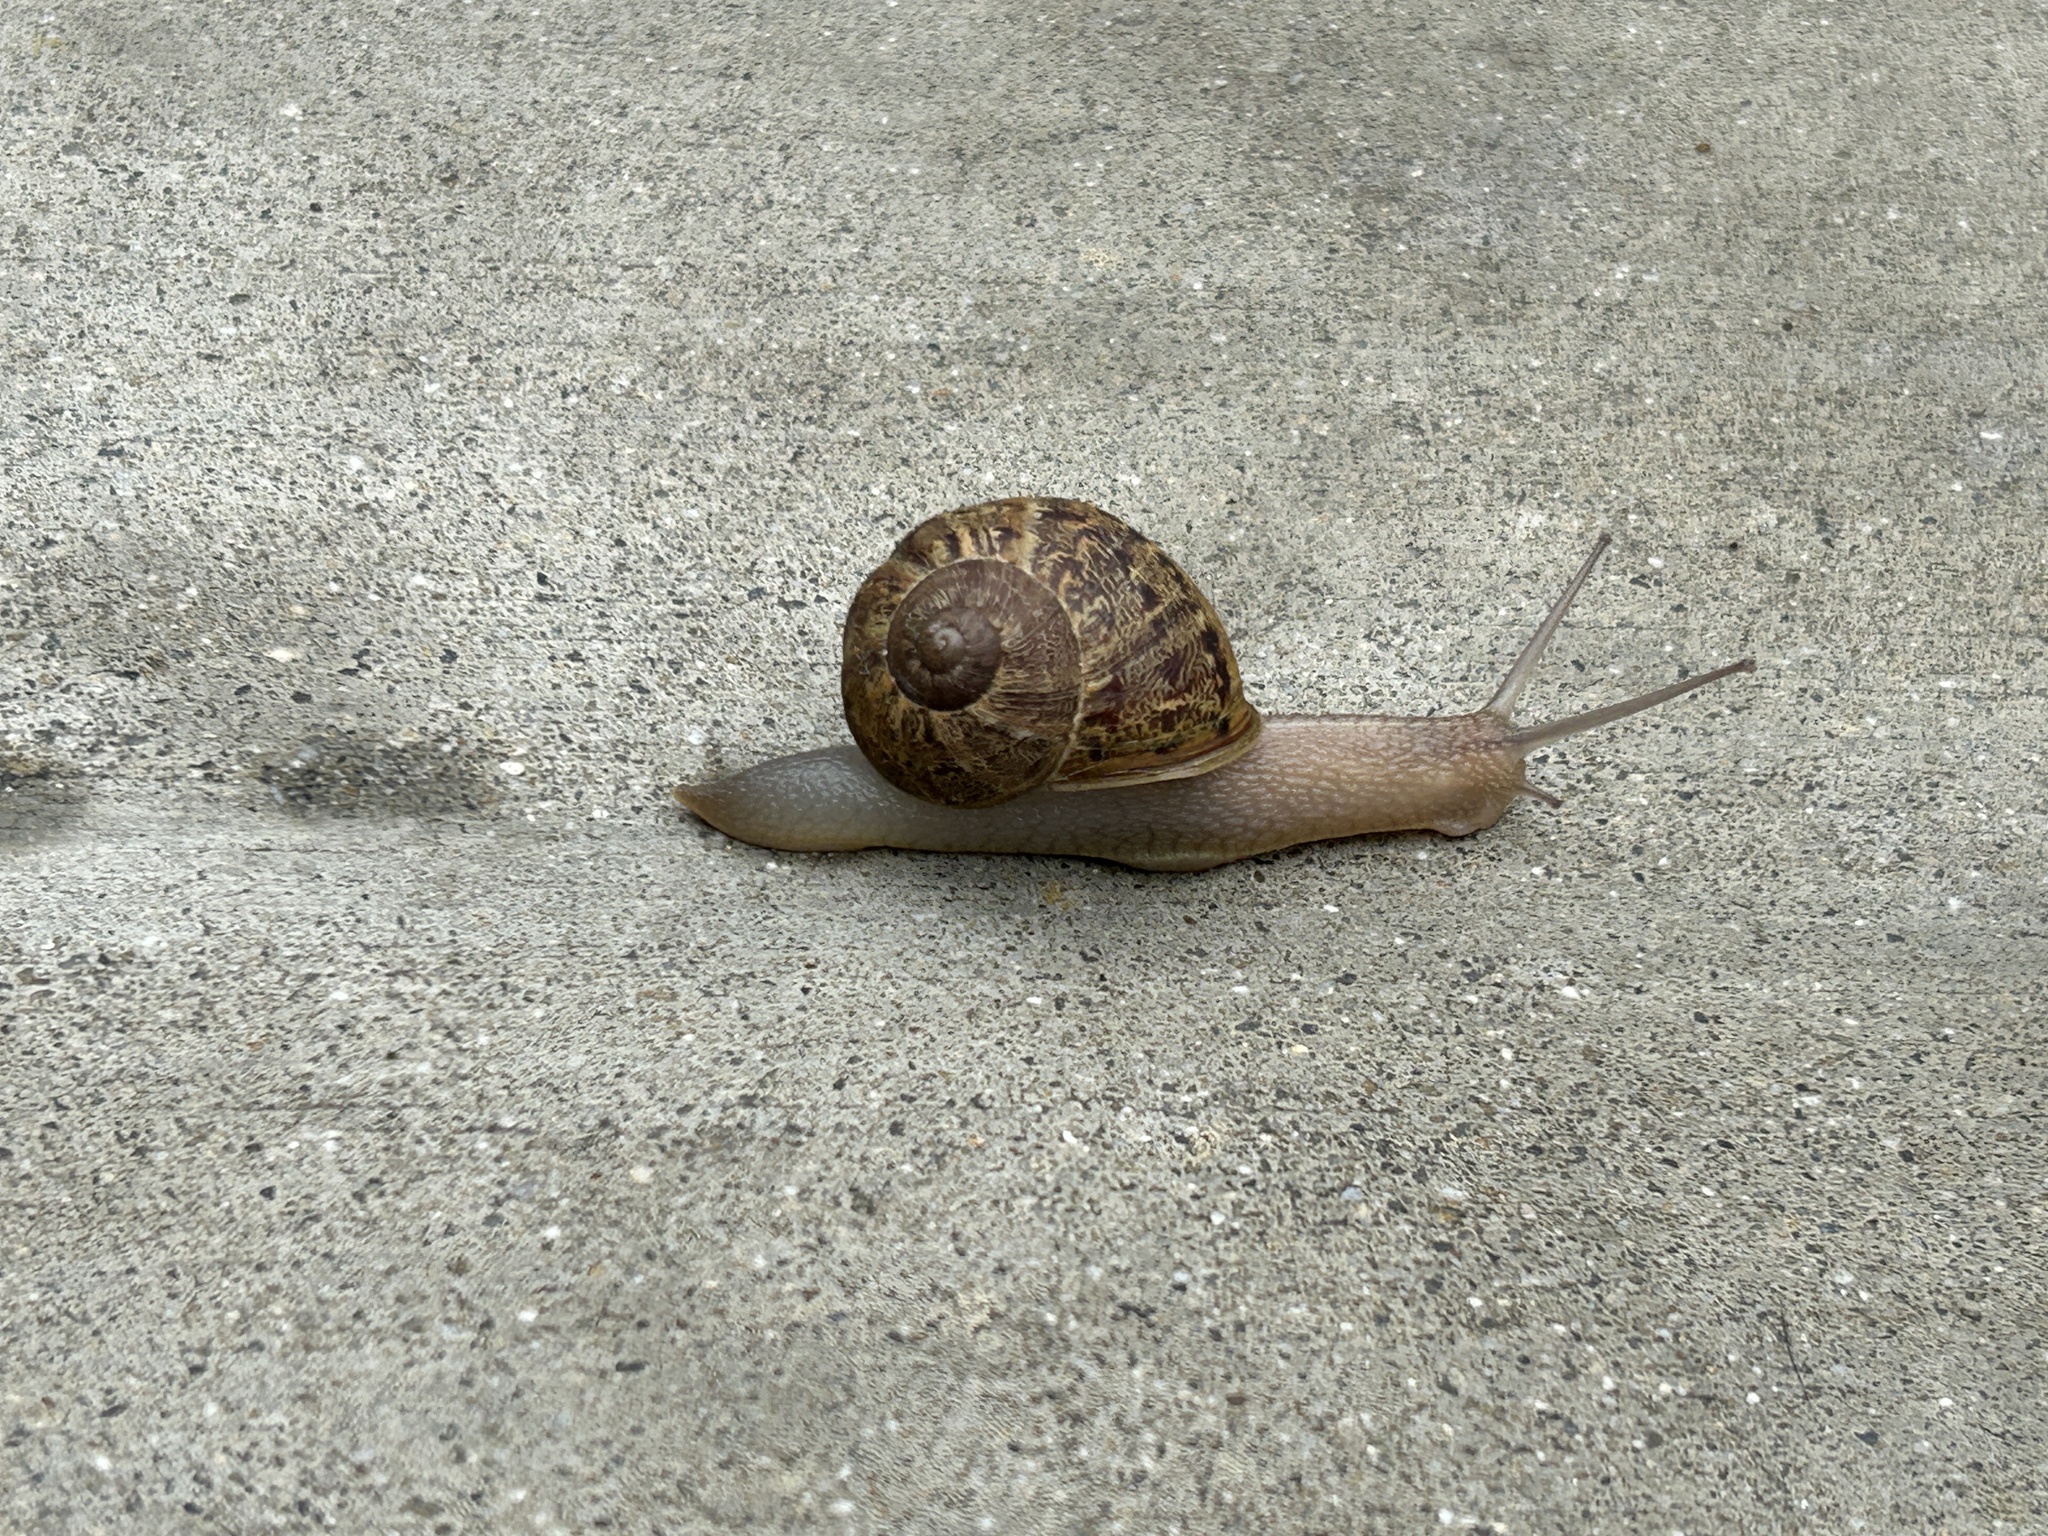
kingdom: Animalia
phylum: Mollusca
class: Gastropoda
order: Stylommatophora
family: Helicidae
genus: Cornu
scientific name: Cornu aspersum
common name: Brown garden snail
